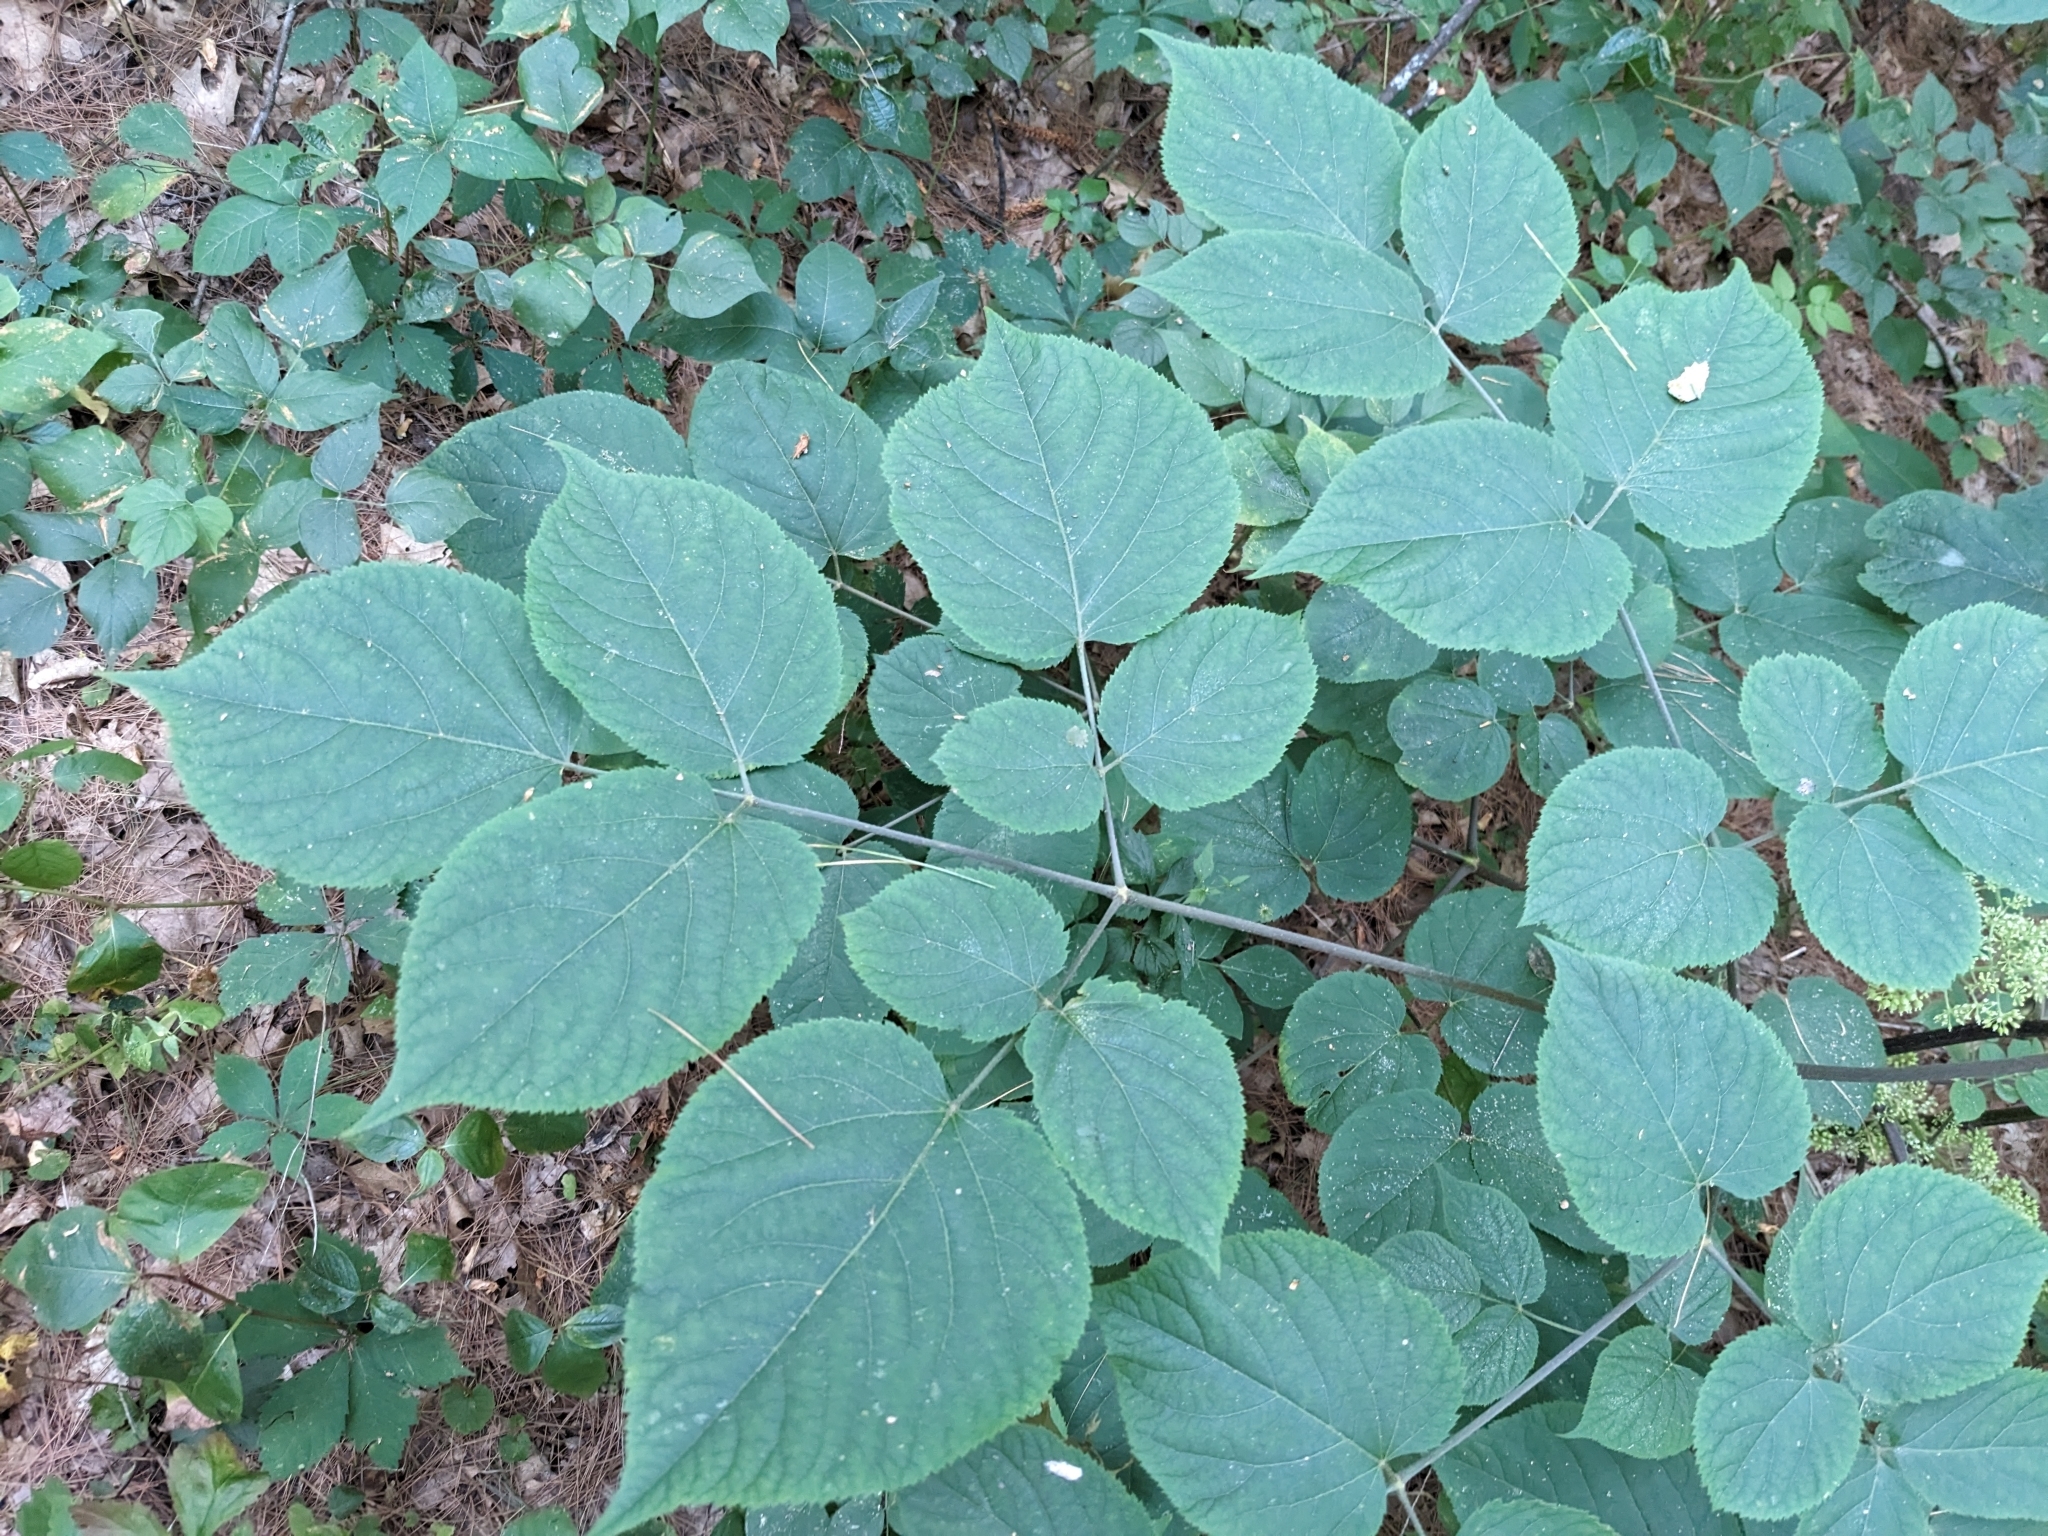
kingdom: Plantae
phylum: Tracheophyta
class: Magnoliopsida
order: Apiales
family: Araliaceae
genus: Aralia
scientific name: Aralia racemosa
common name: American-spikenard
